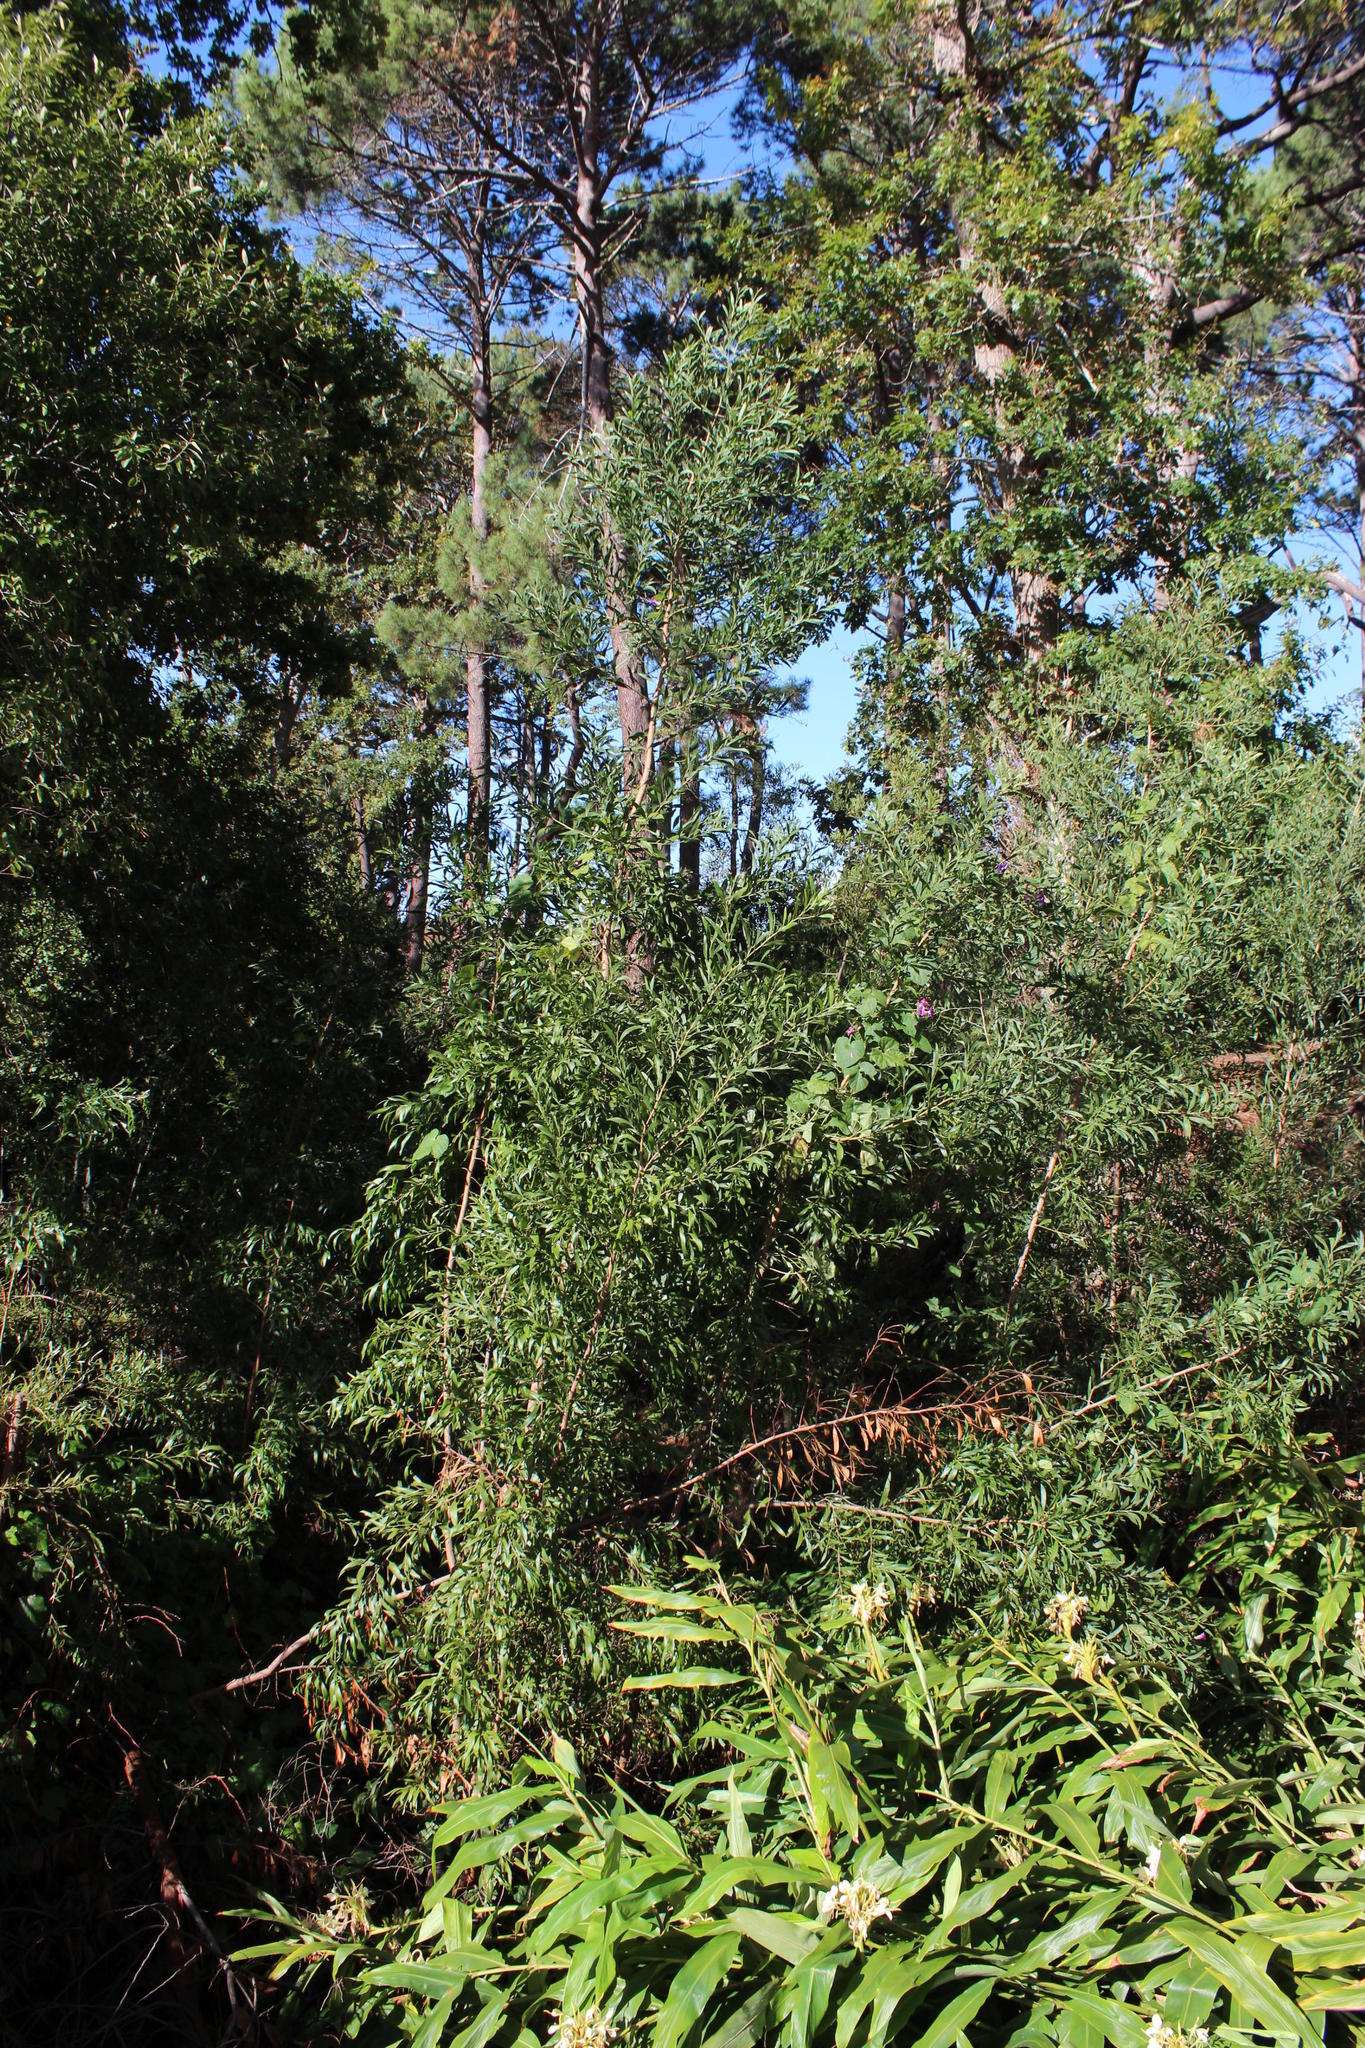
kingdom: Plantae
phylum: Tracheophyta
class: Magnoliopsida
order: Fabales
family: Fabaceae
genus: Acacia
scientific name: Acacia melanoxylon
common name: Blackwood
